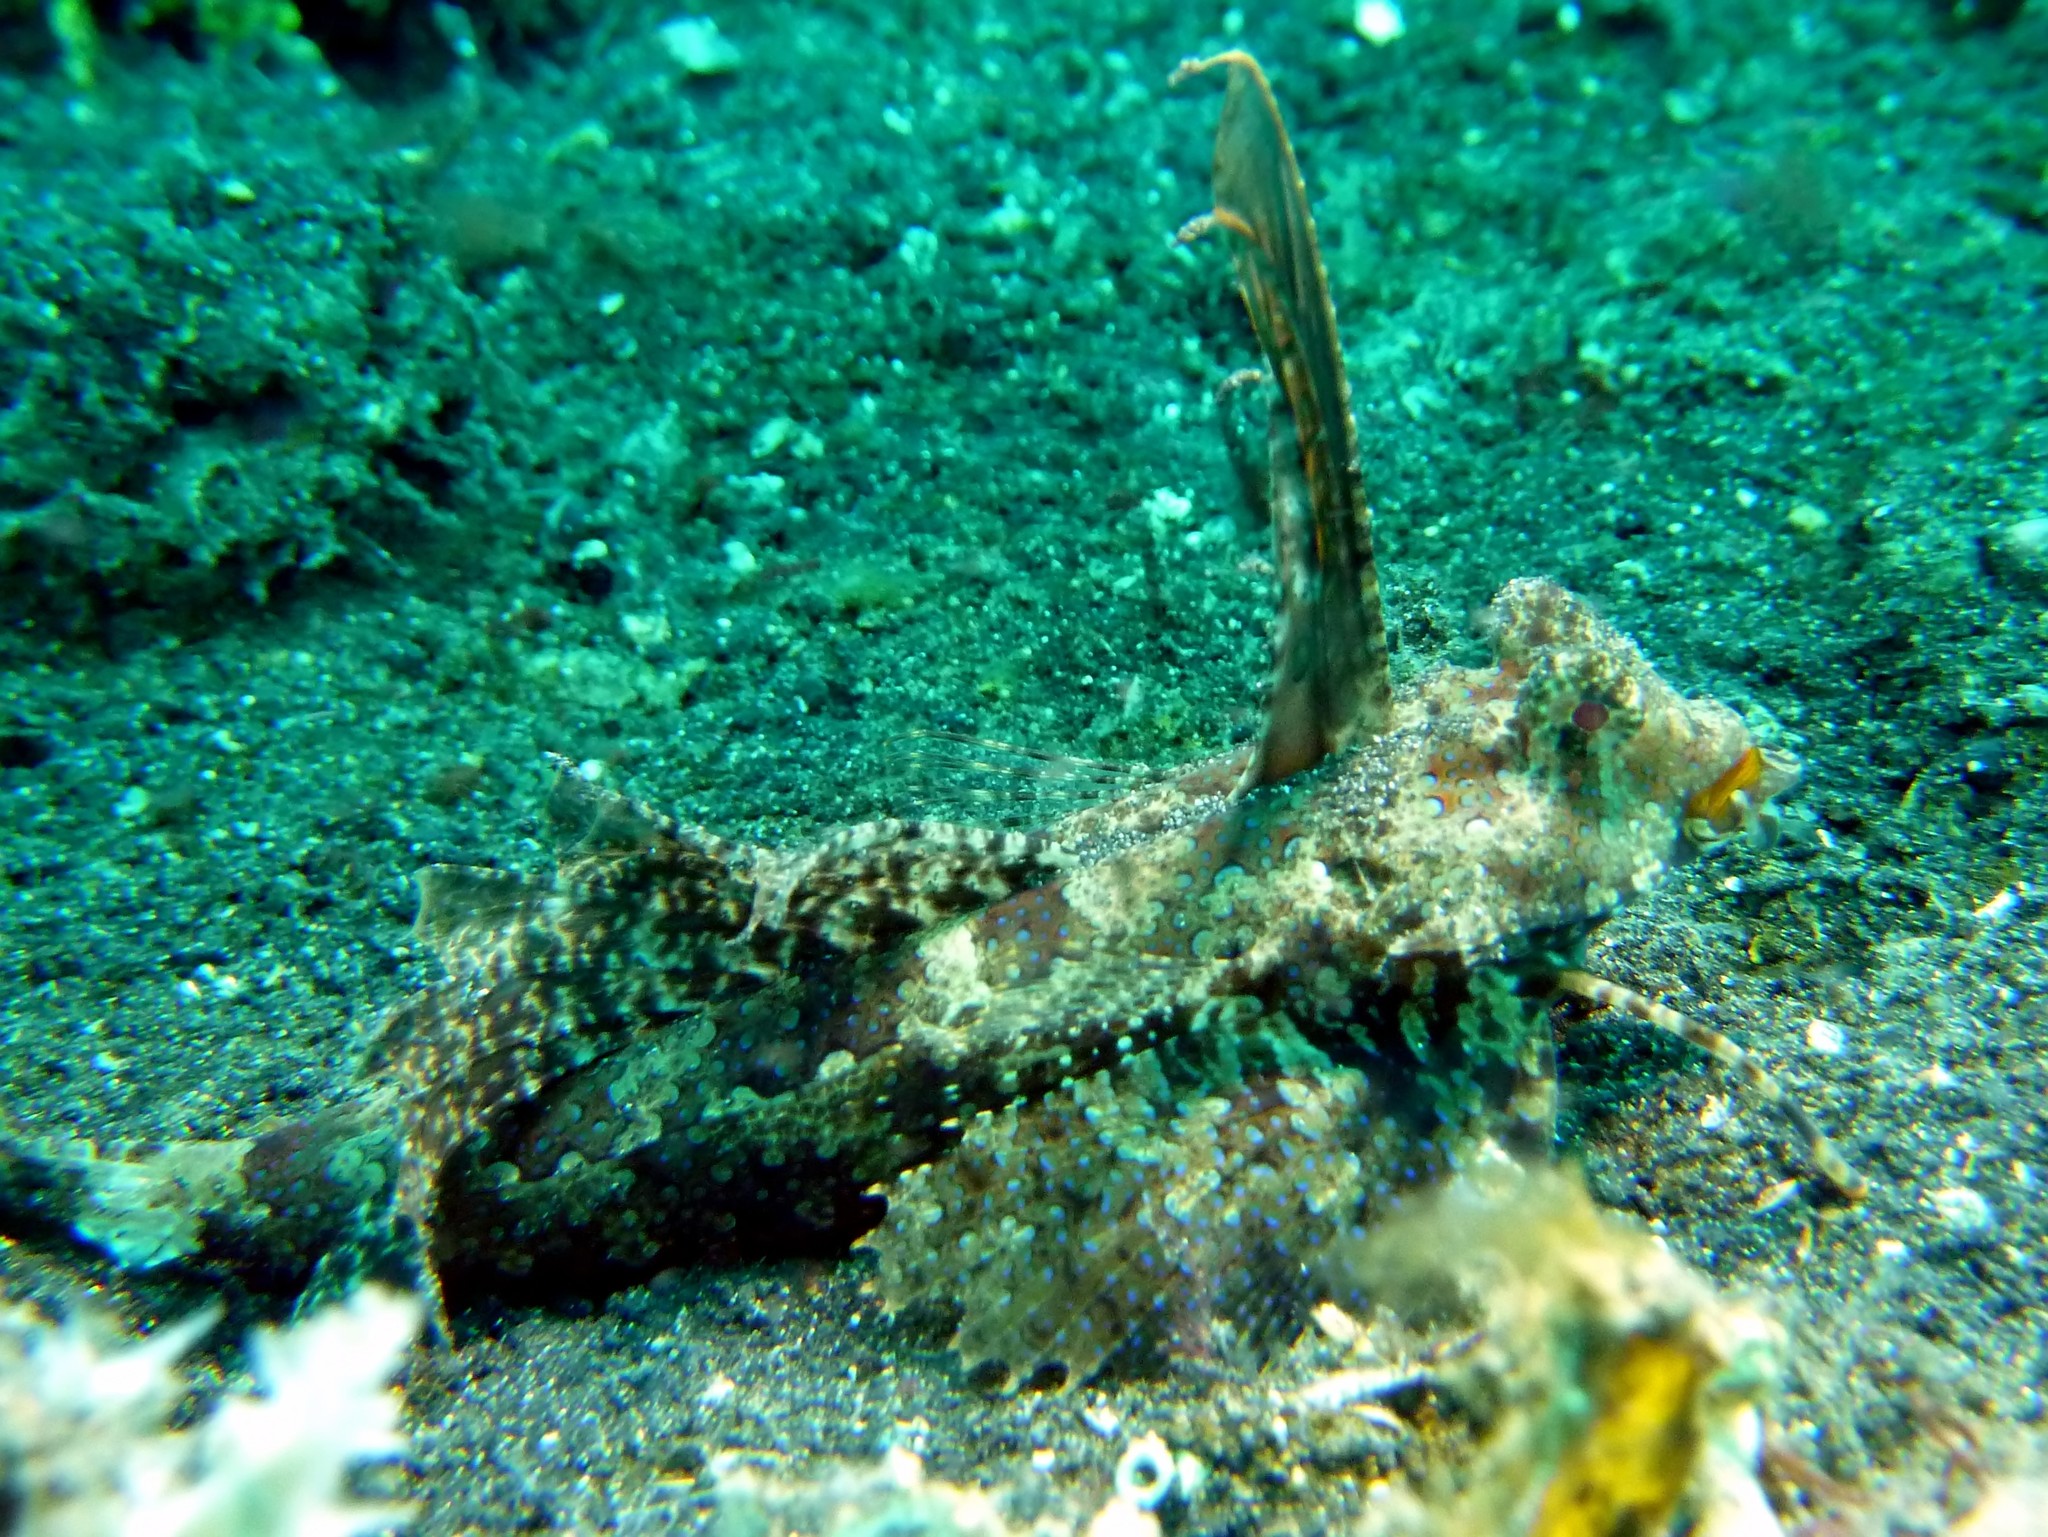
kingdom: Animalia
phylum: Chordata
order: Perciformes
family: Callionymidae
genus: Dactylopus
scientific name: Dactylopus dactylopus
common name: Fingered dragonet
